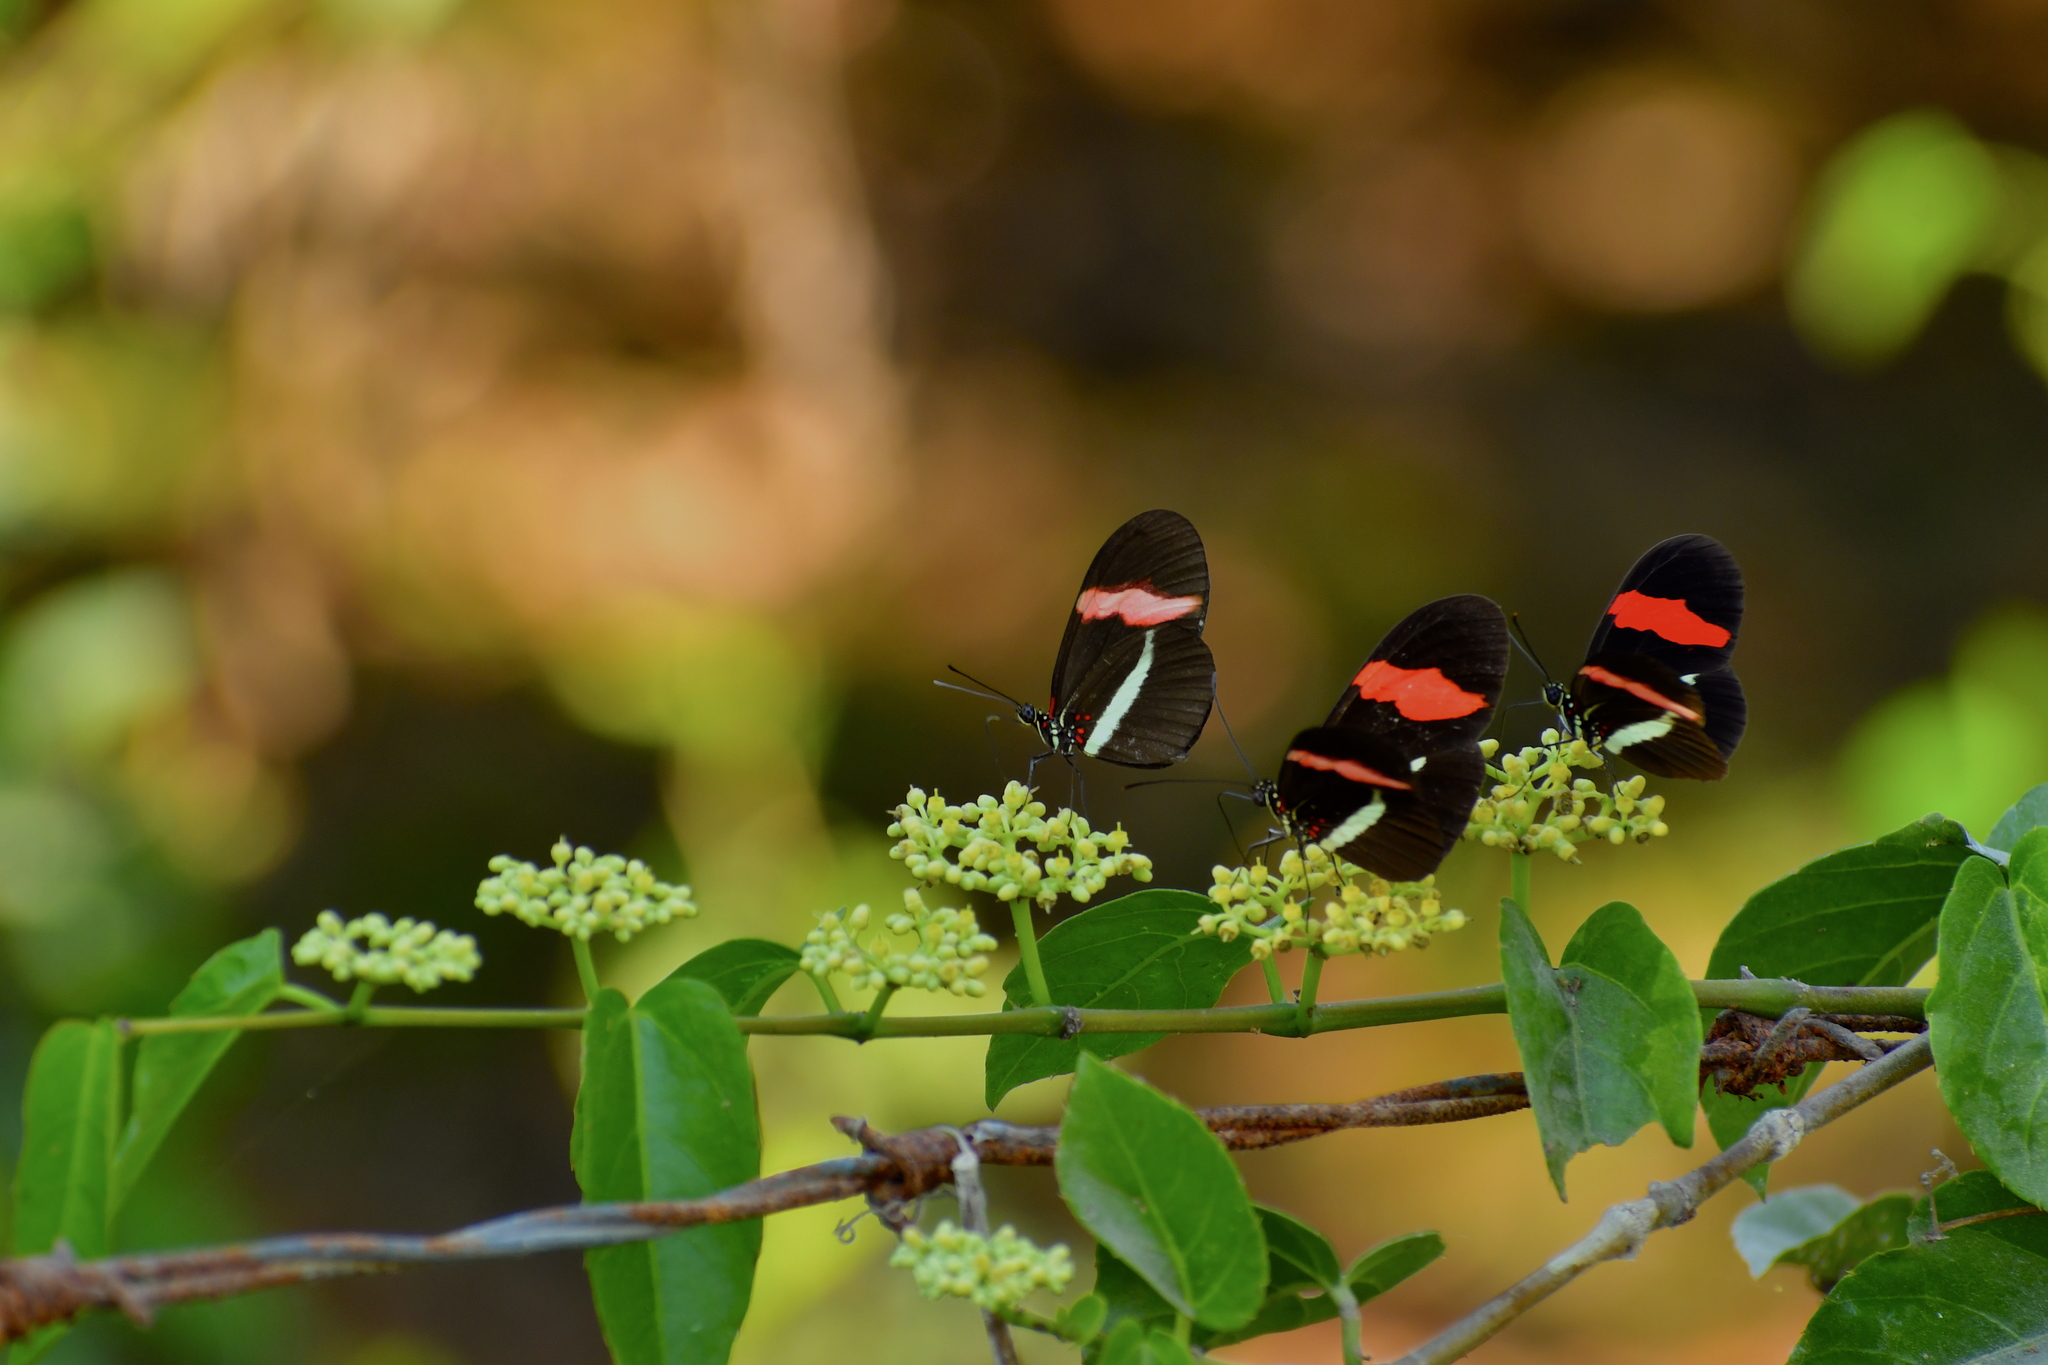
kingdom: Animalia
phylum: Arthropoda
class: Insecta
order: Lepidoptera
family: Nymphalidae
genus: Heliconius
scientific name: Heliconius erato
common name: Common patch longwing
